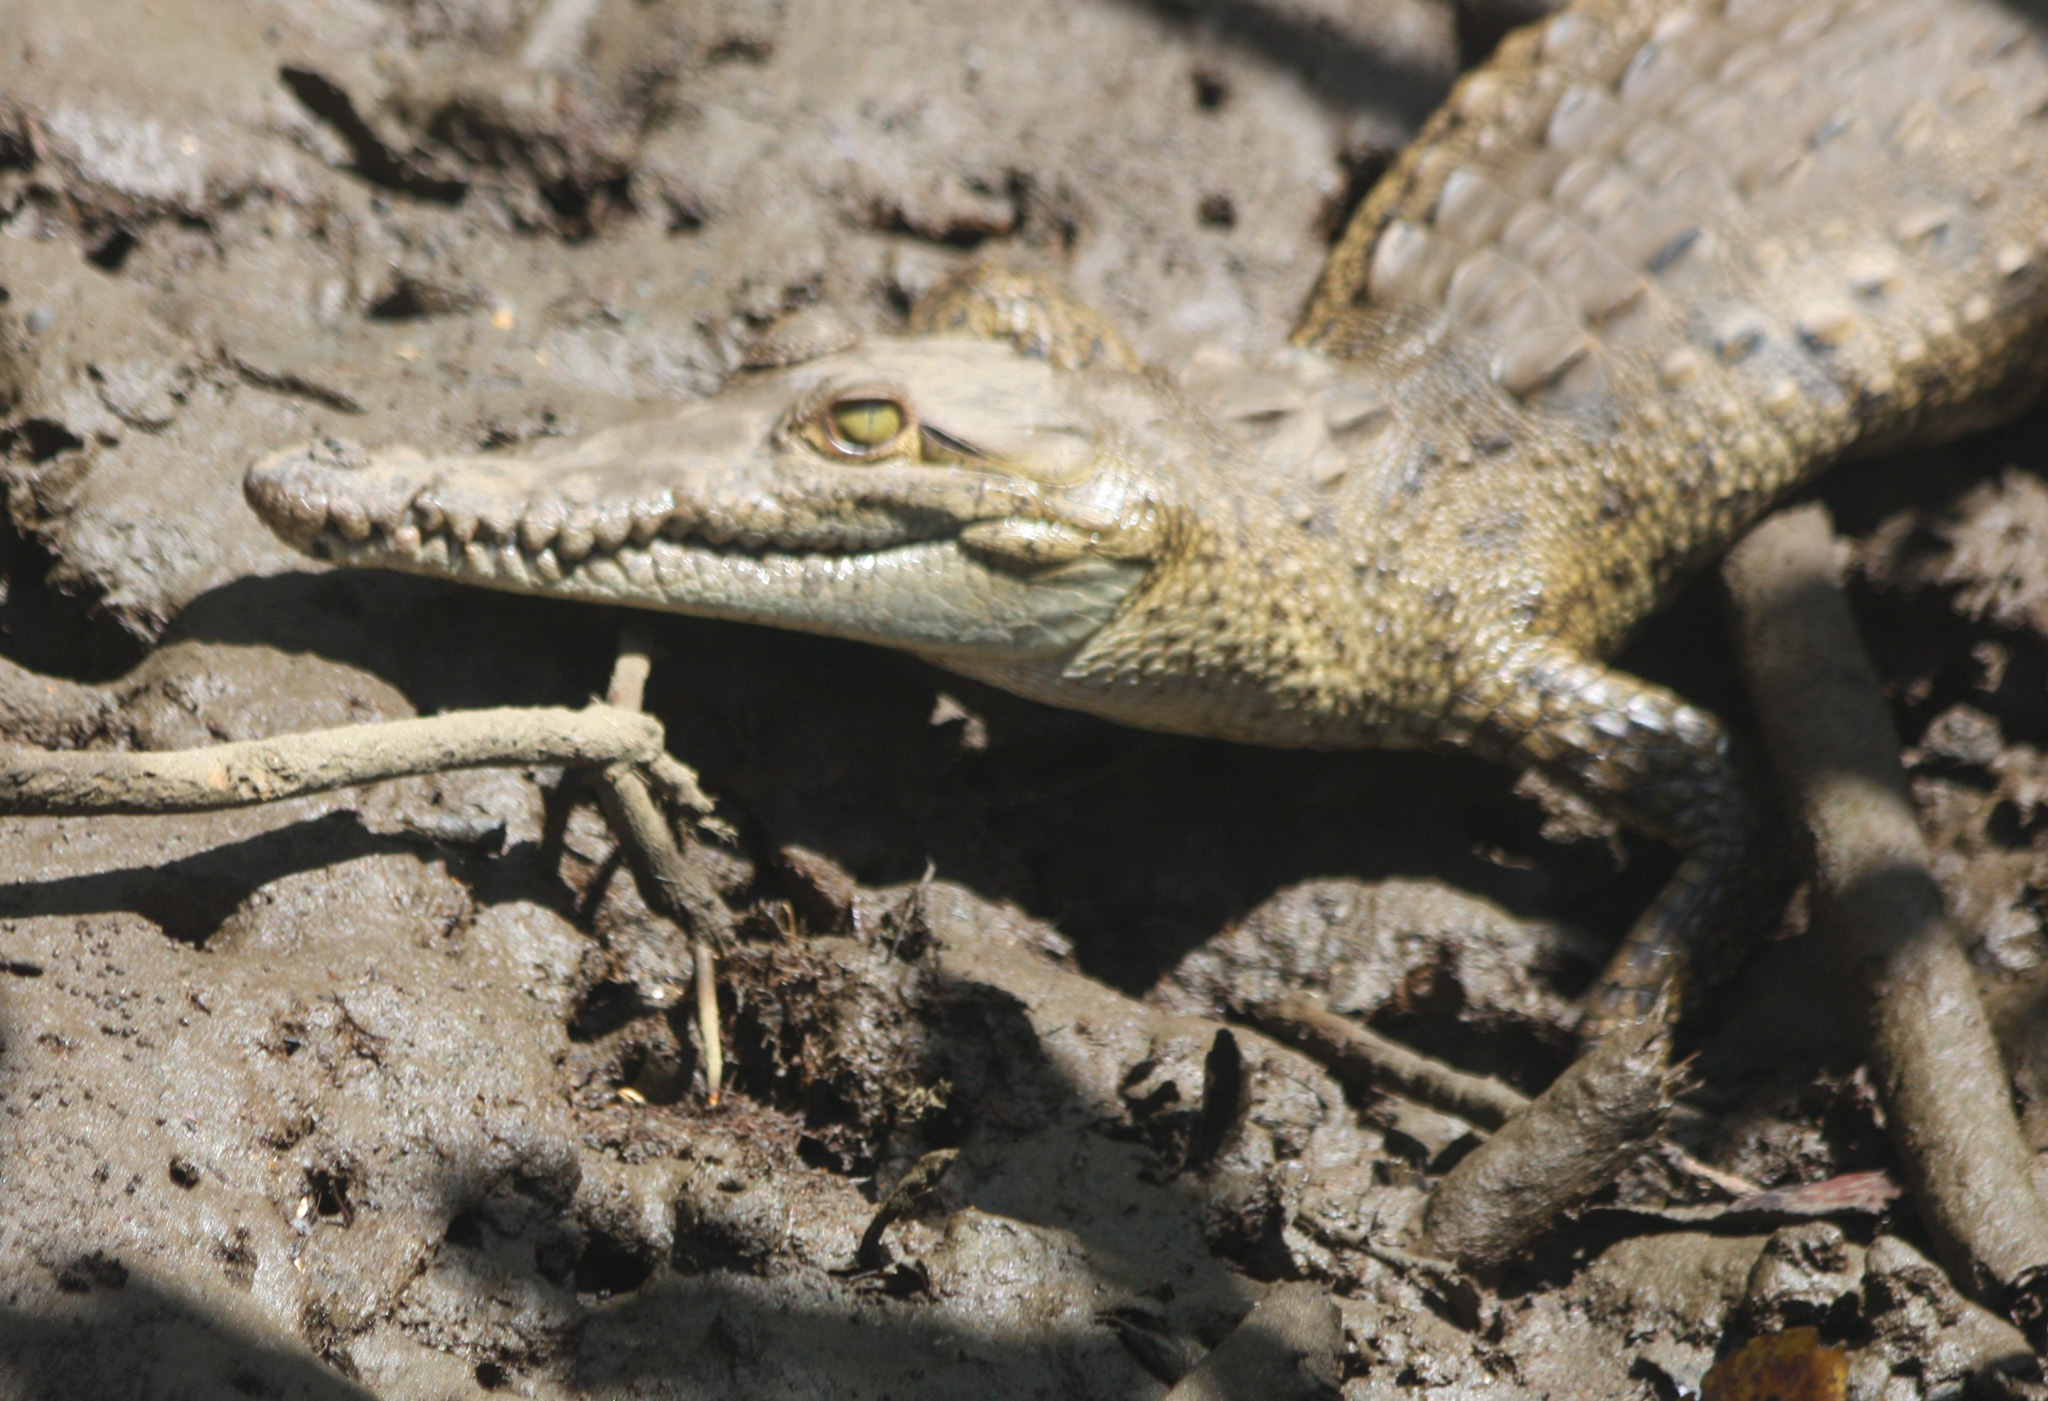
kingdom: Animalia
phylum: Chordata
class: Crocodylia
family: Crocodylidae
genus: Crocodylus
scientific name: Crocodylus acutus
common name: American crocodile
